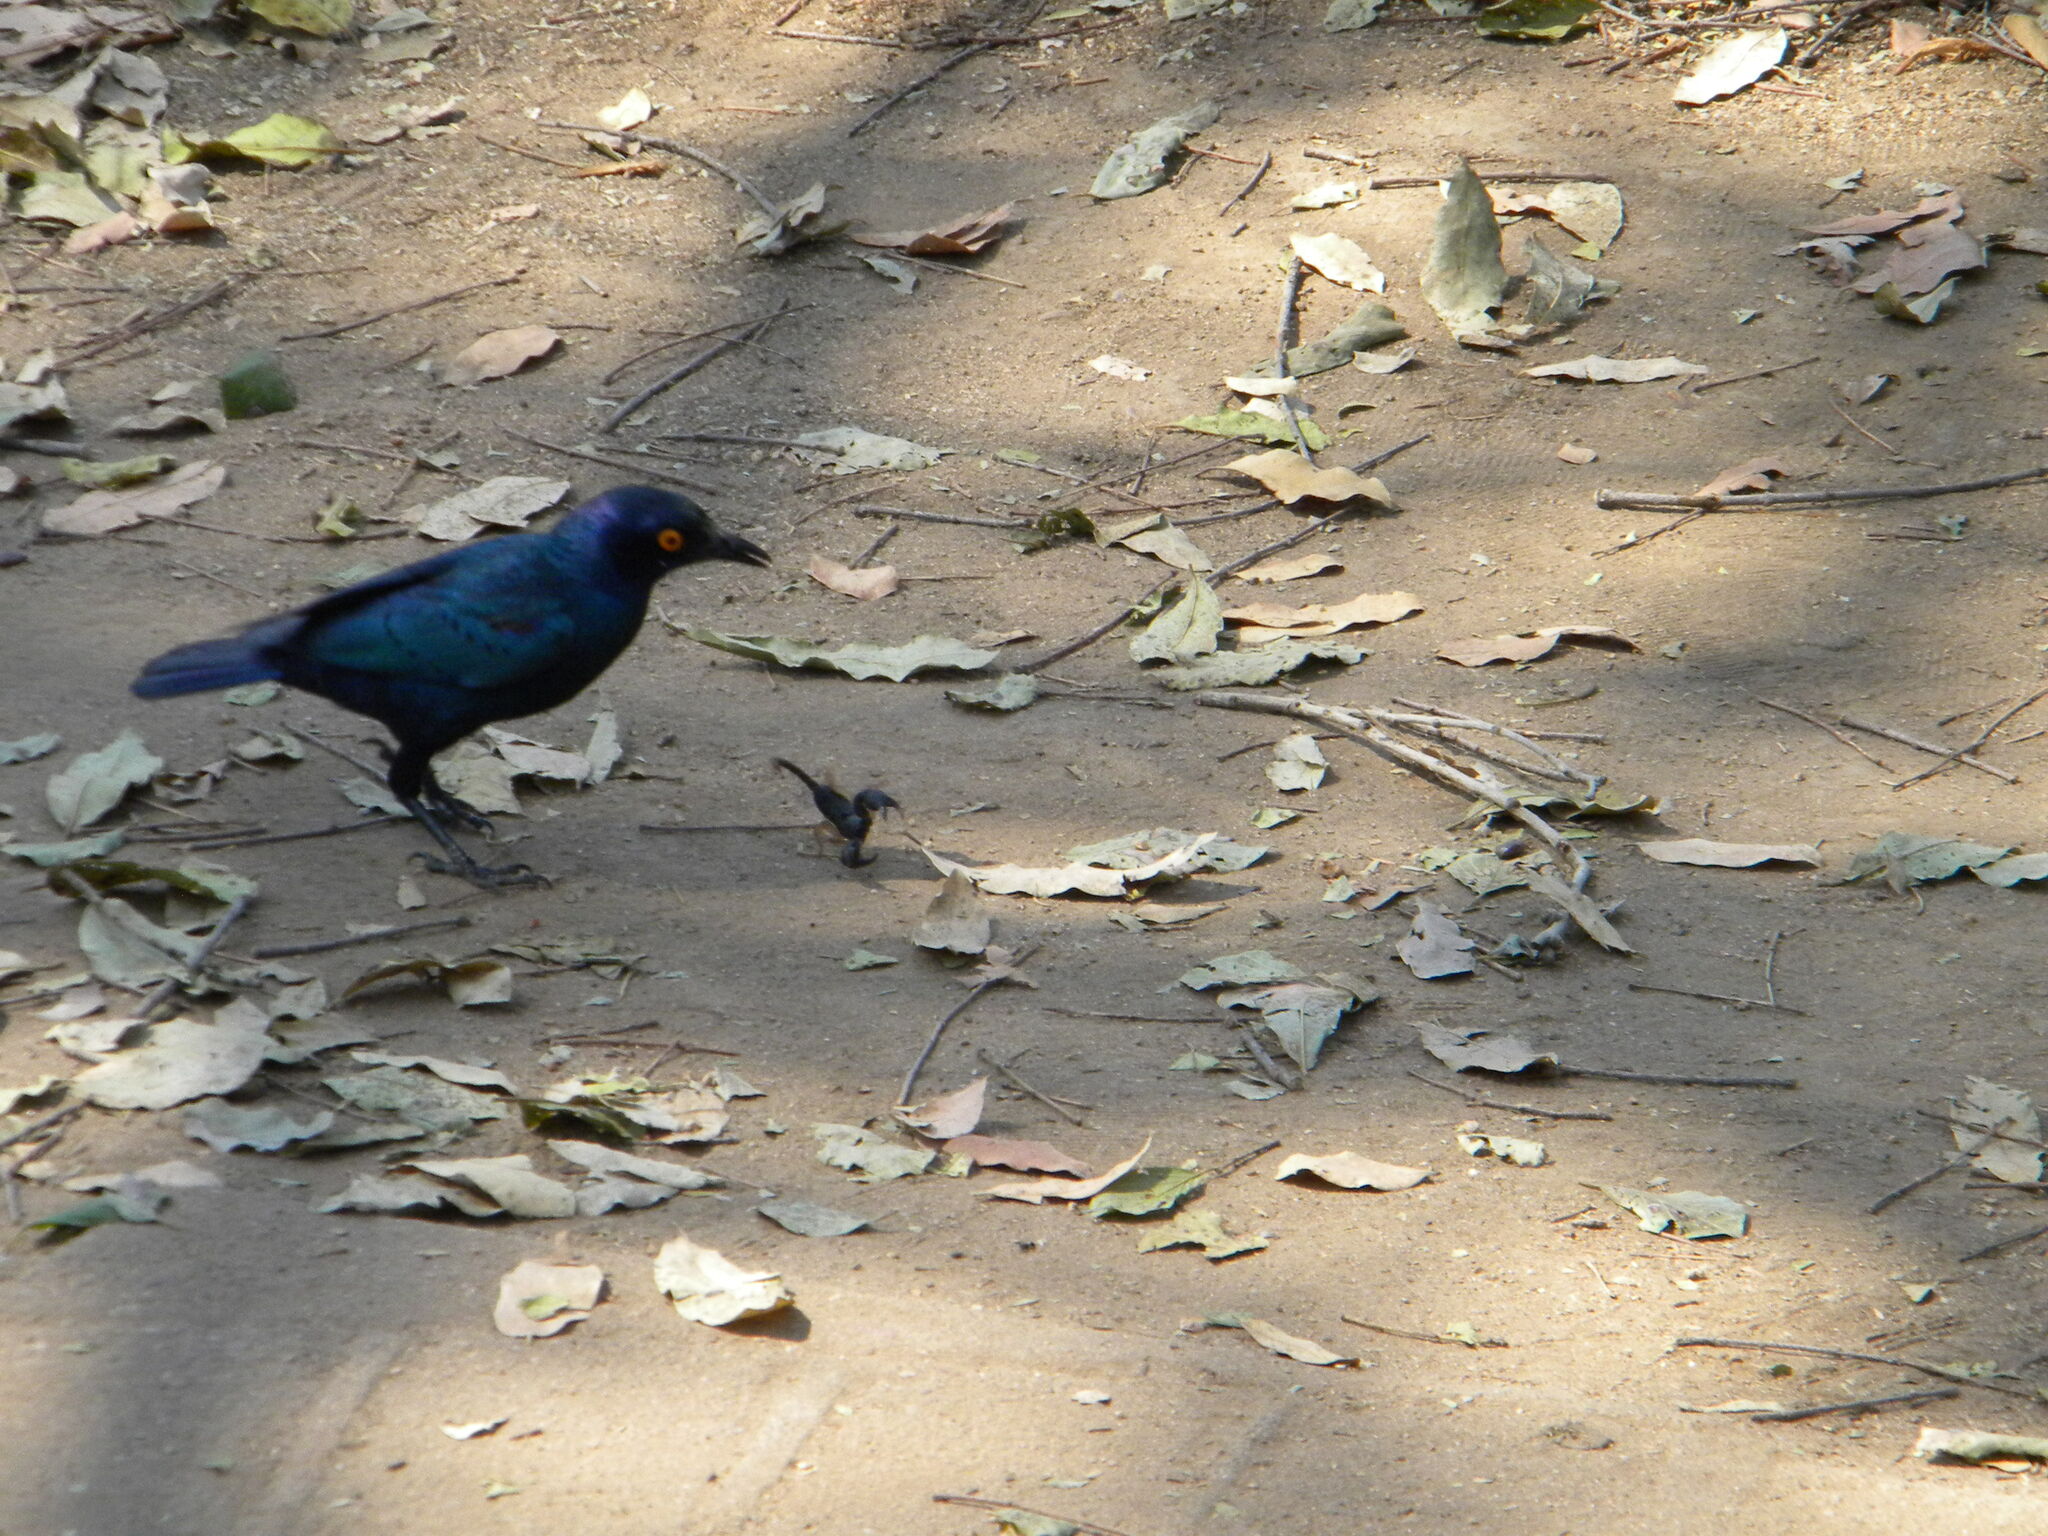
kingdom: Animalia
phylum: Arthropoda
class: Arachnida
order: Scorpiones
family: Hormuridae
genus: Opisthacanthus
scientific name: Opisthacanthus asper
